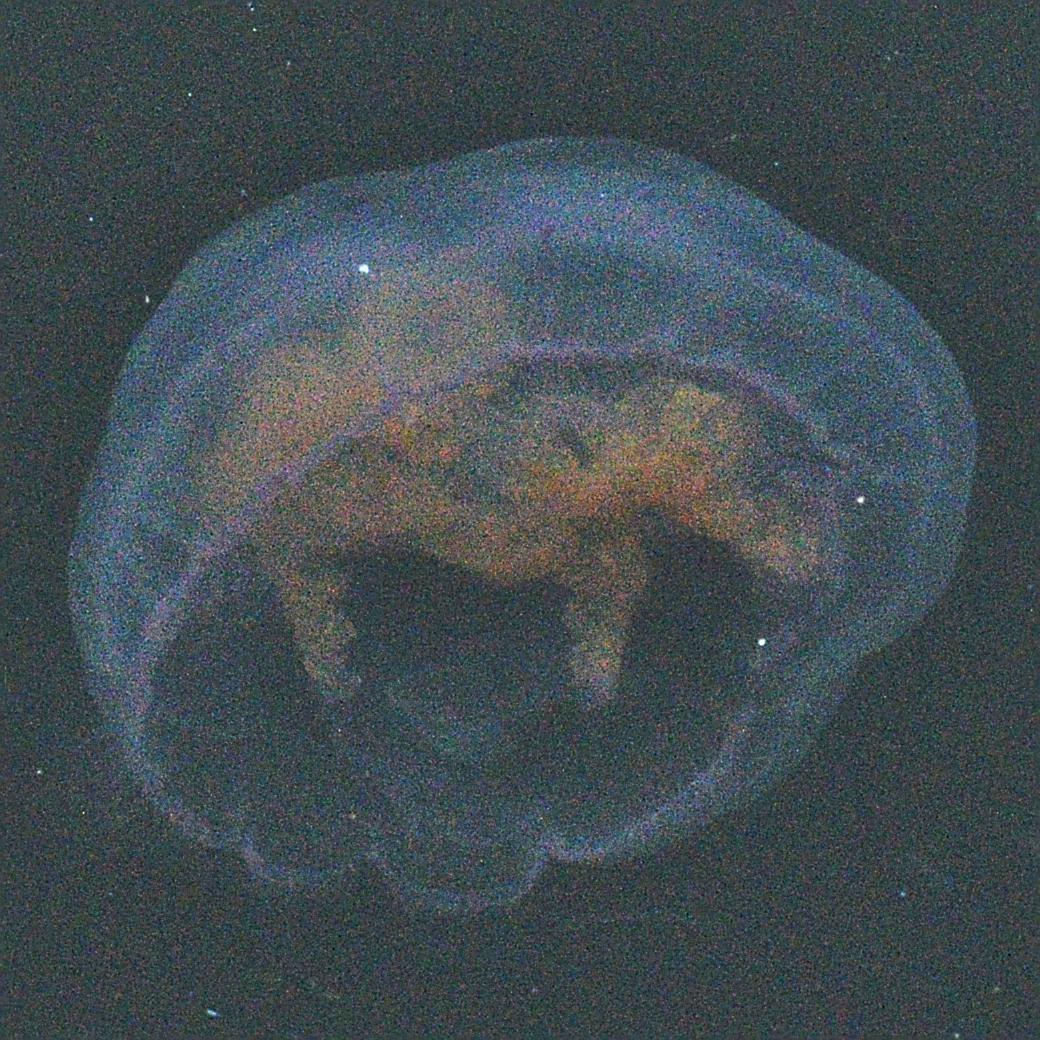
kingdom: Animalia
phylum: Cnidaria
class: Scyphozoa
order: Semaeostomeae
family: Ulmaridae
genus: Aurelia
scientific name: Aurelia aurita
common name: Moon jellyfish
